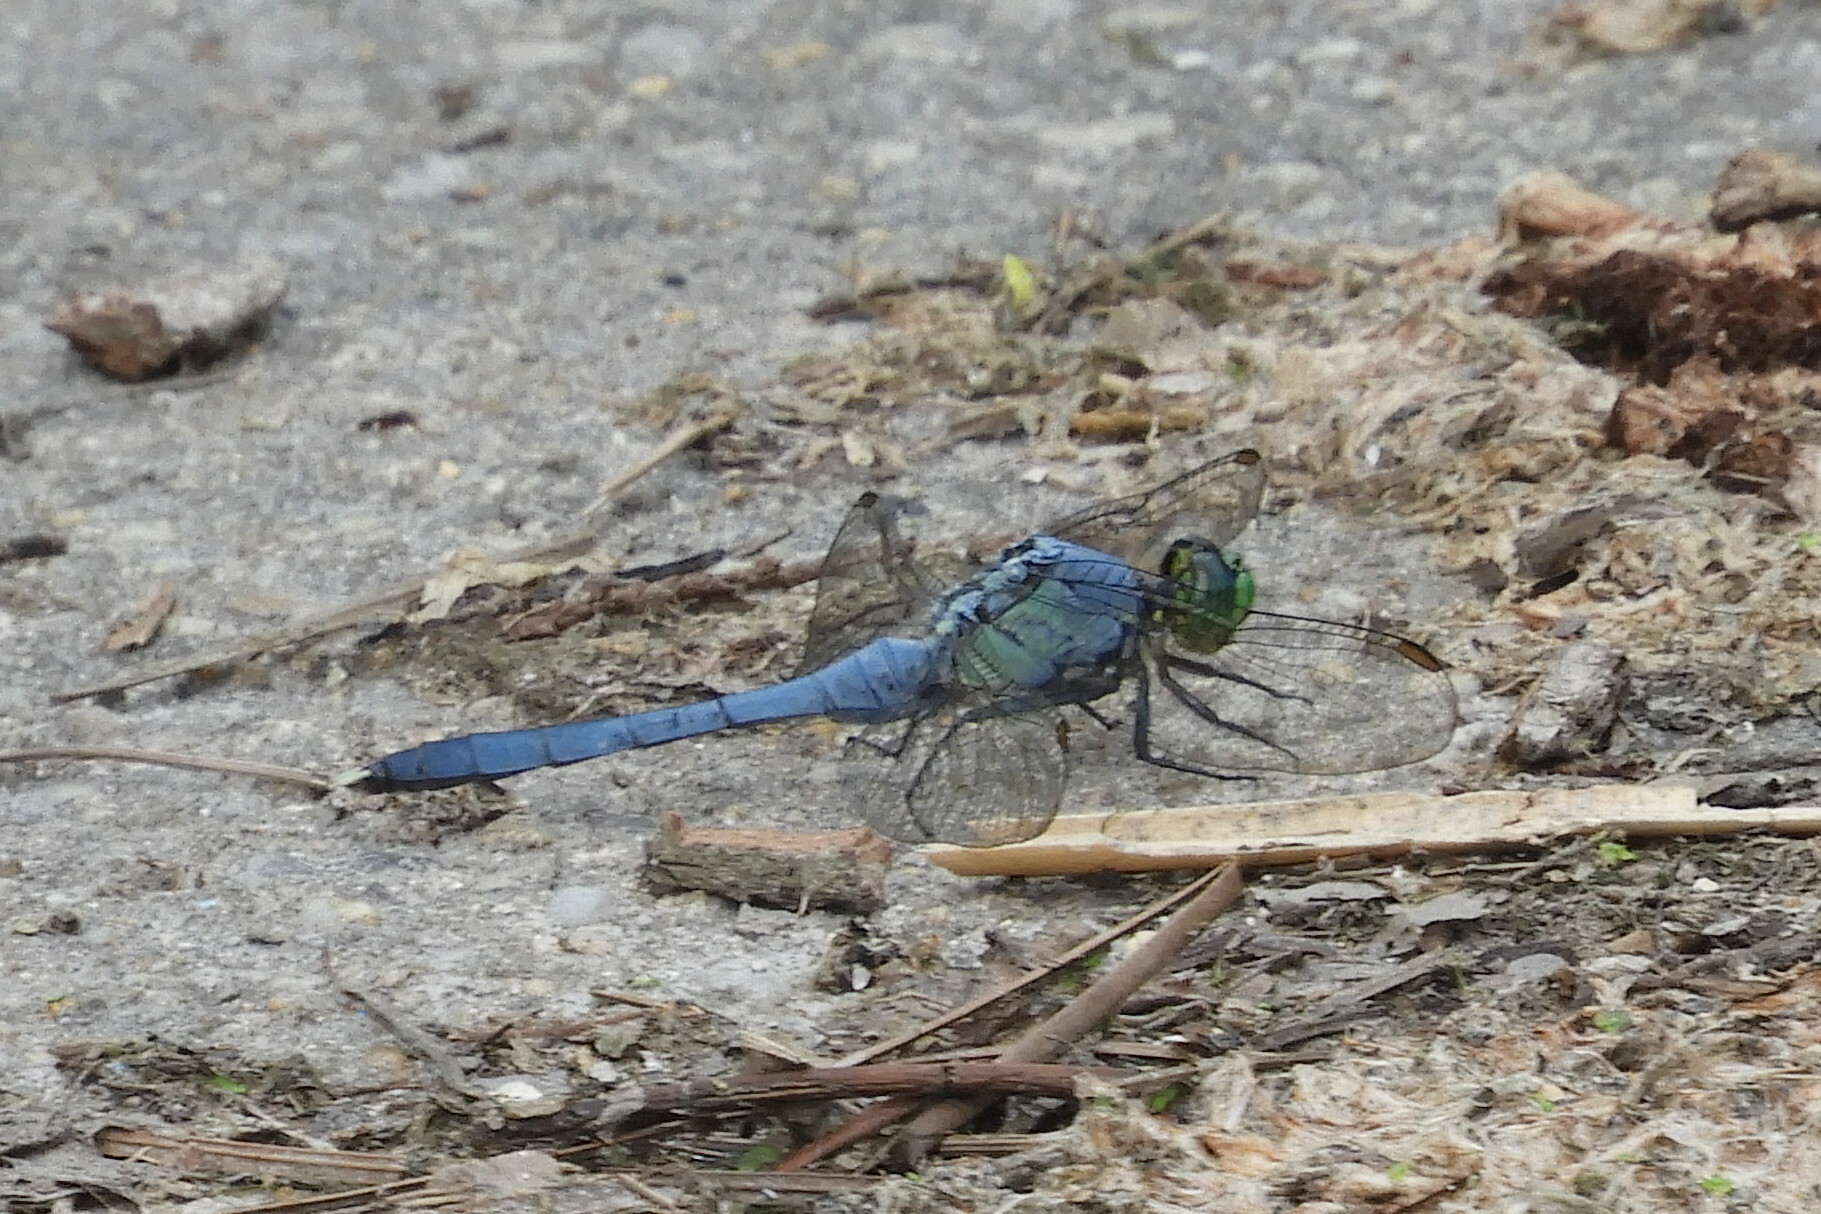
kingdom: Animalia
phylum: Arthropoda
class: Insecta
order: Odonata
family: Libellulidae
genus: Erythemis
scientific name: Erythemis simplicicollis
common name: Eastern pondhawk
